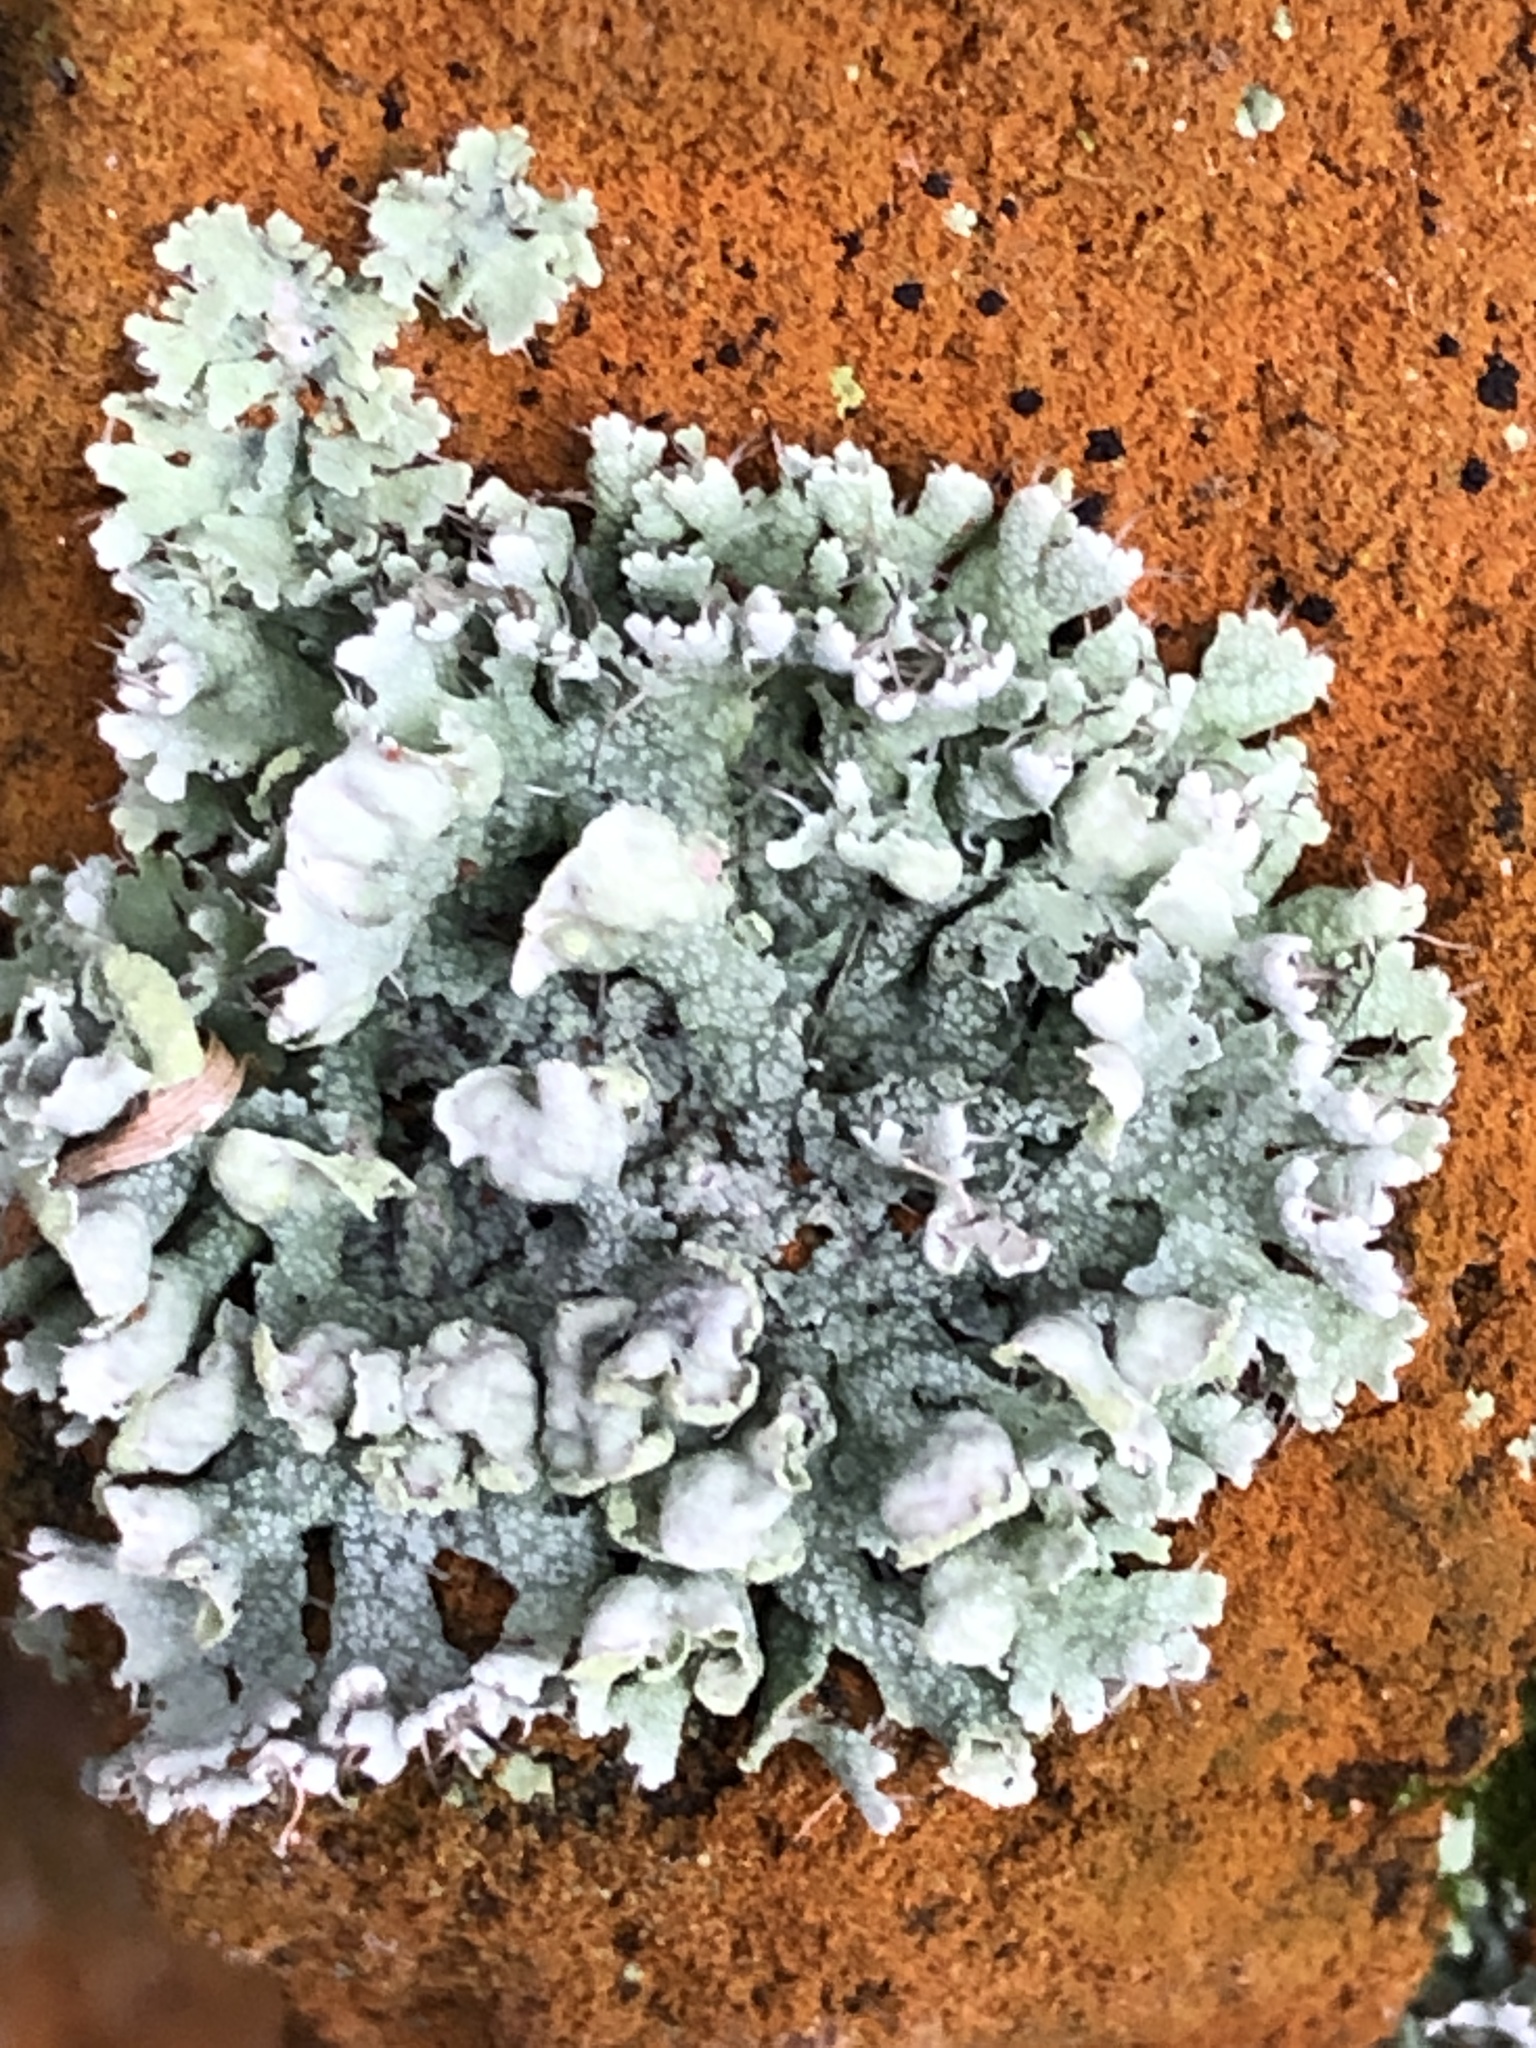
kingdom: Fungi
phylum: Ascomycota
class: Lecanoromycetes
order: Caliciales
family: Physciaceae
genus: Physcia
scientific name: Physcia adscendens
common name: Hooded rosette lichen
